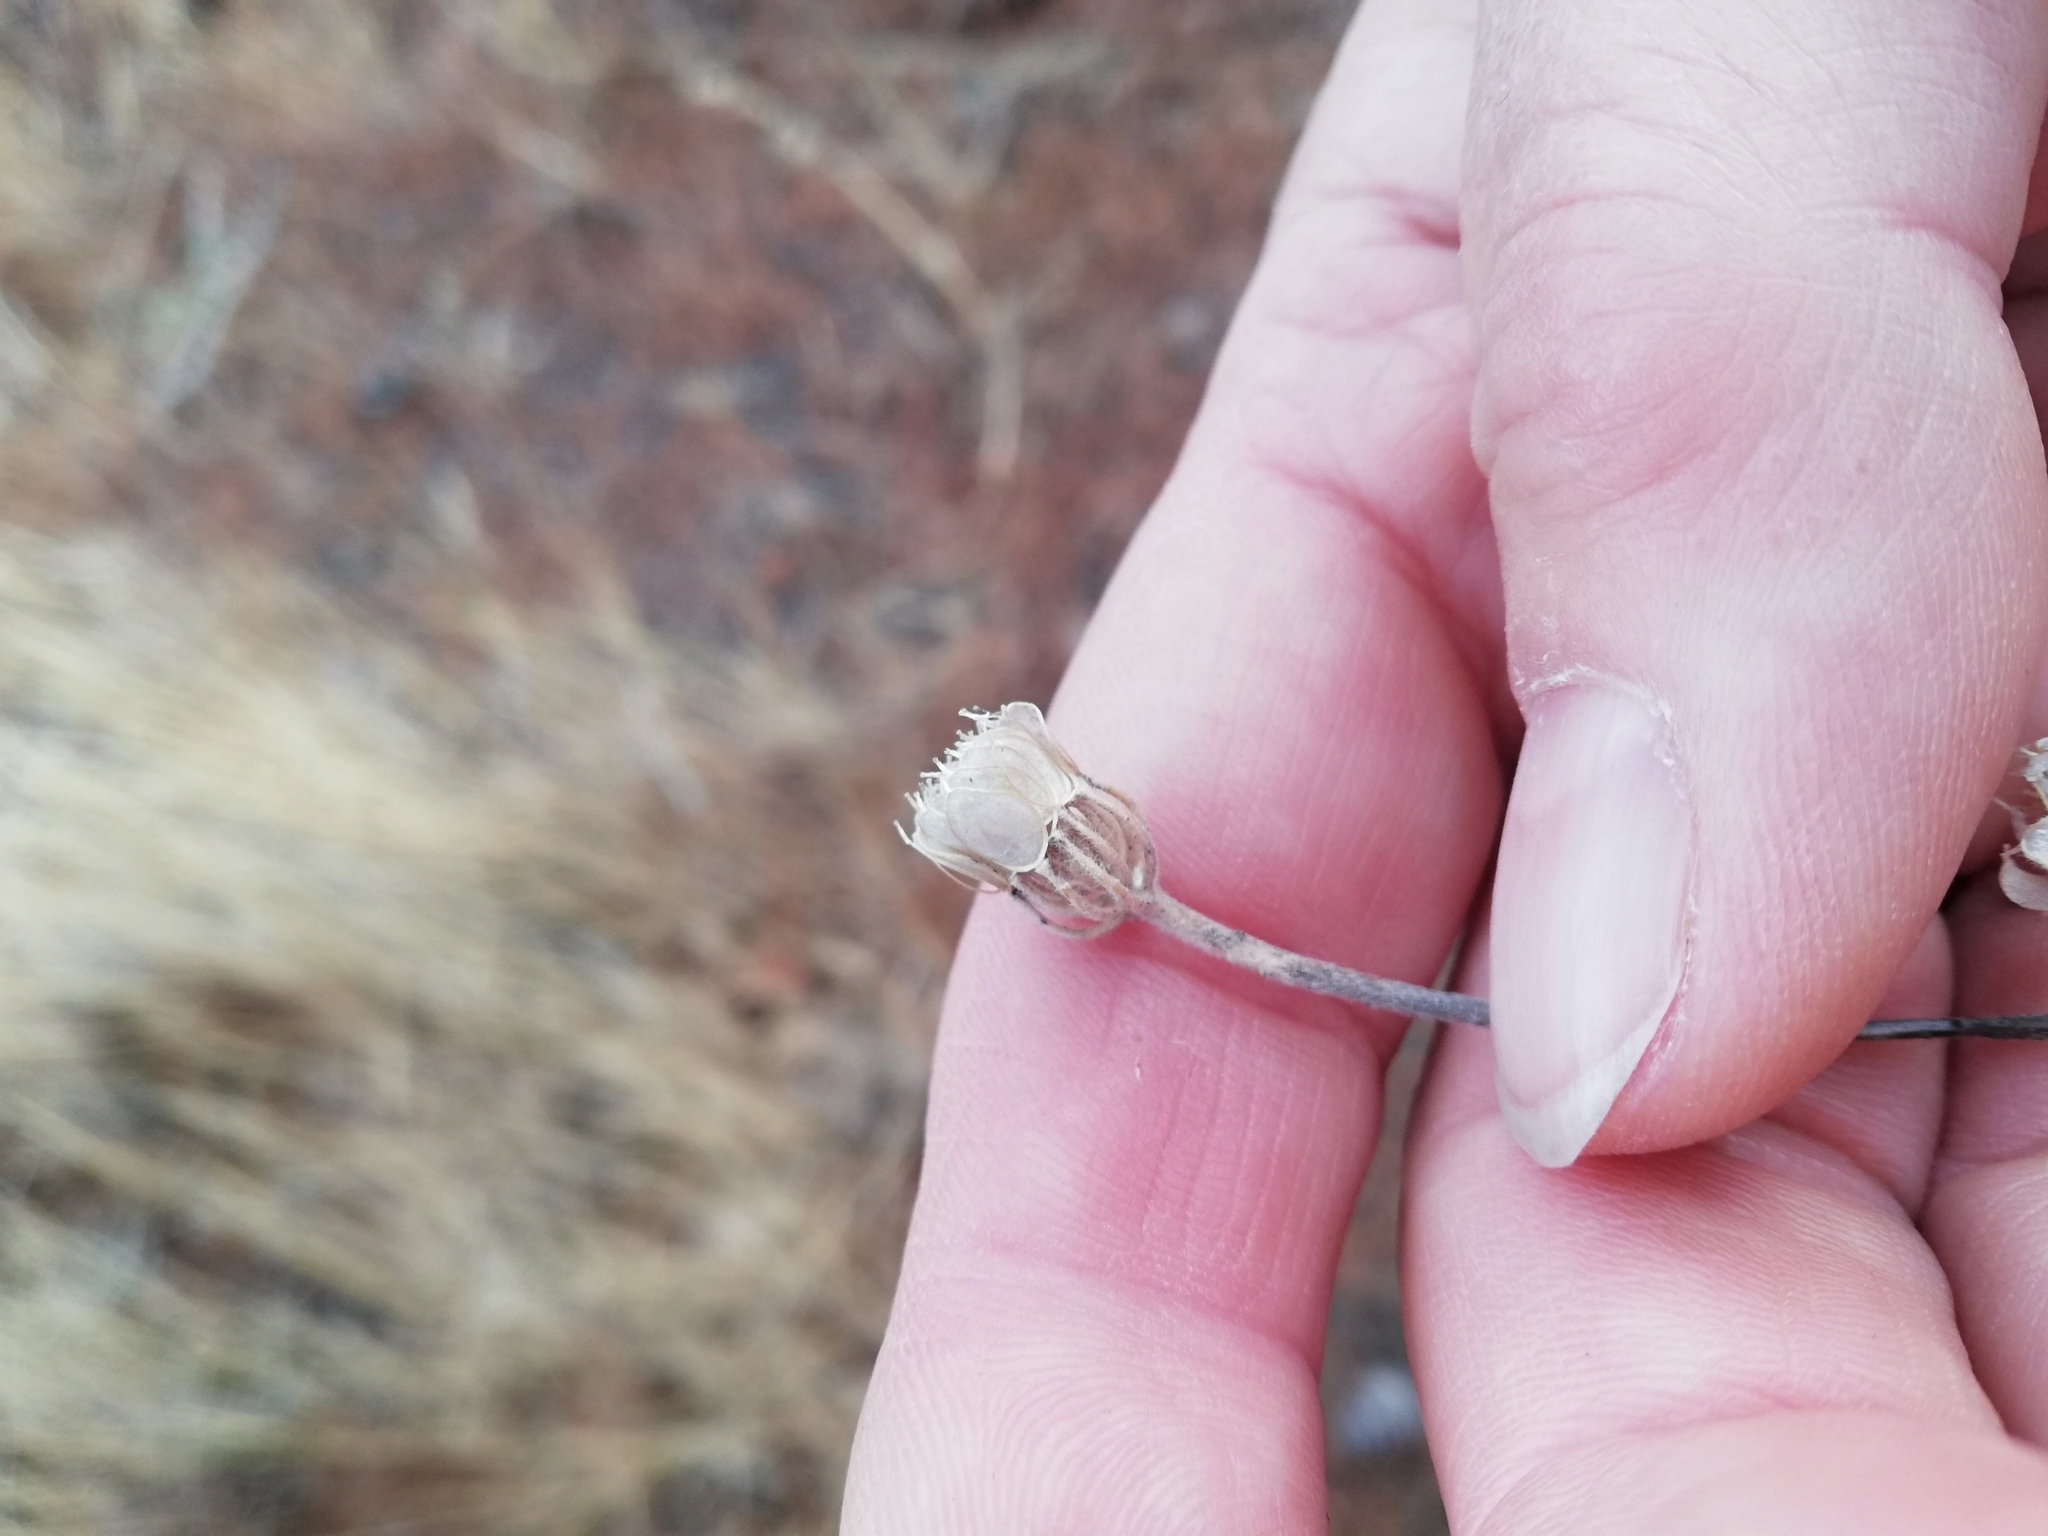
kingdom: Plantae
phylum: Tracheophyta
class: Magnoliopsida
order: Brassicales
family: Brassicaceae
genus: Alyssum
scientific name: Alyssum umbellatum
